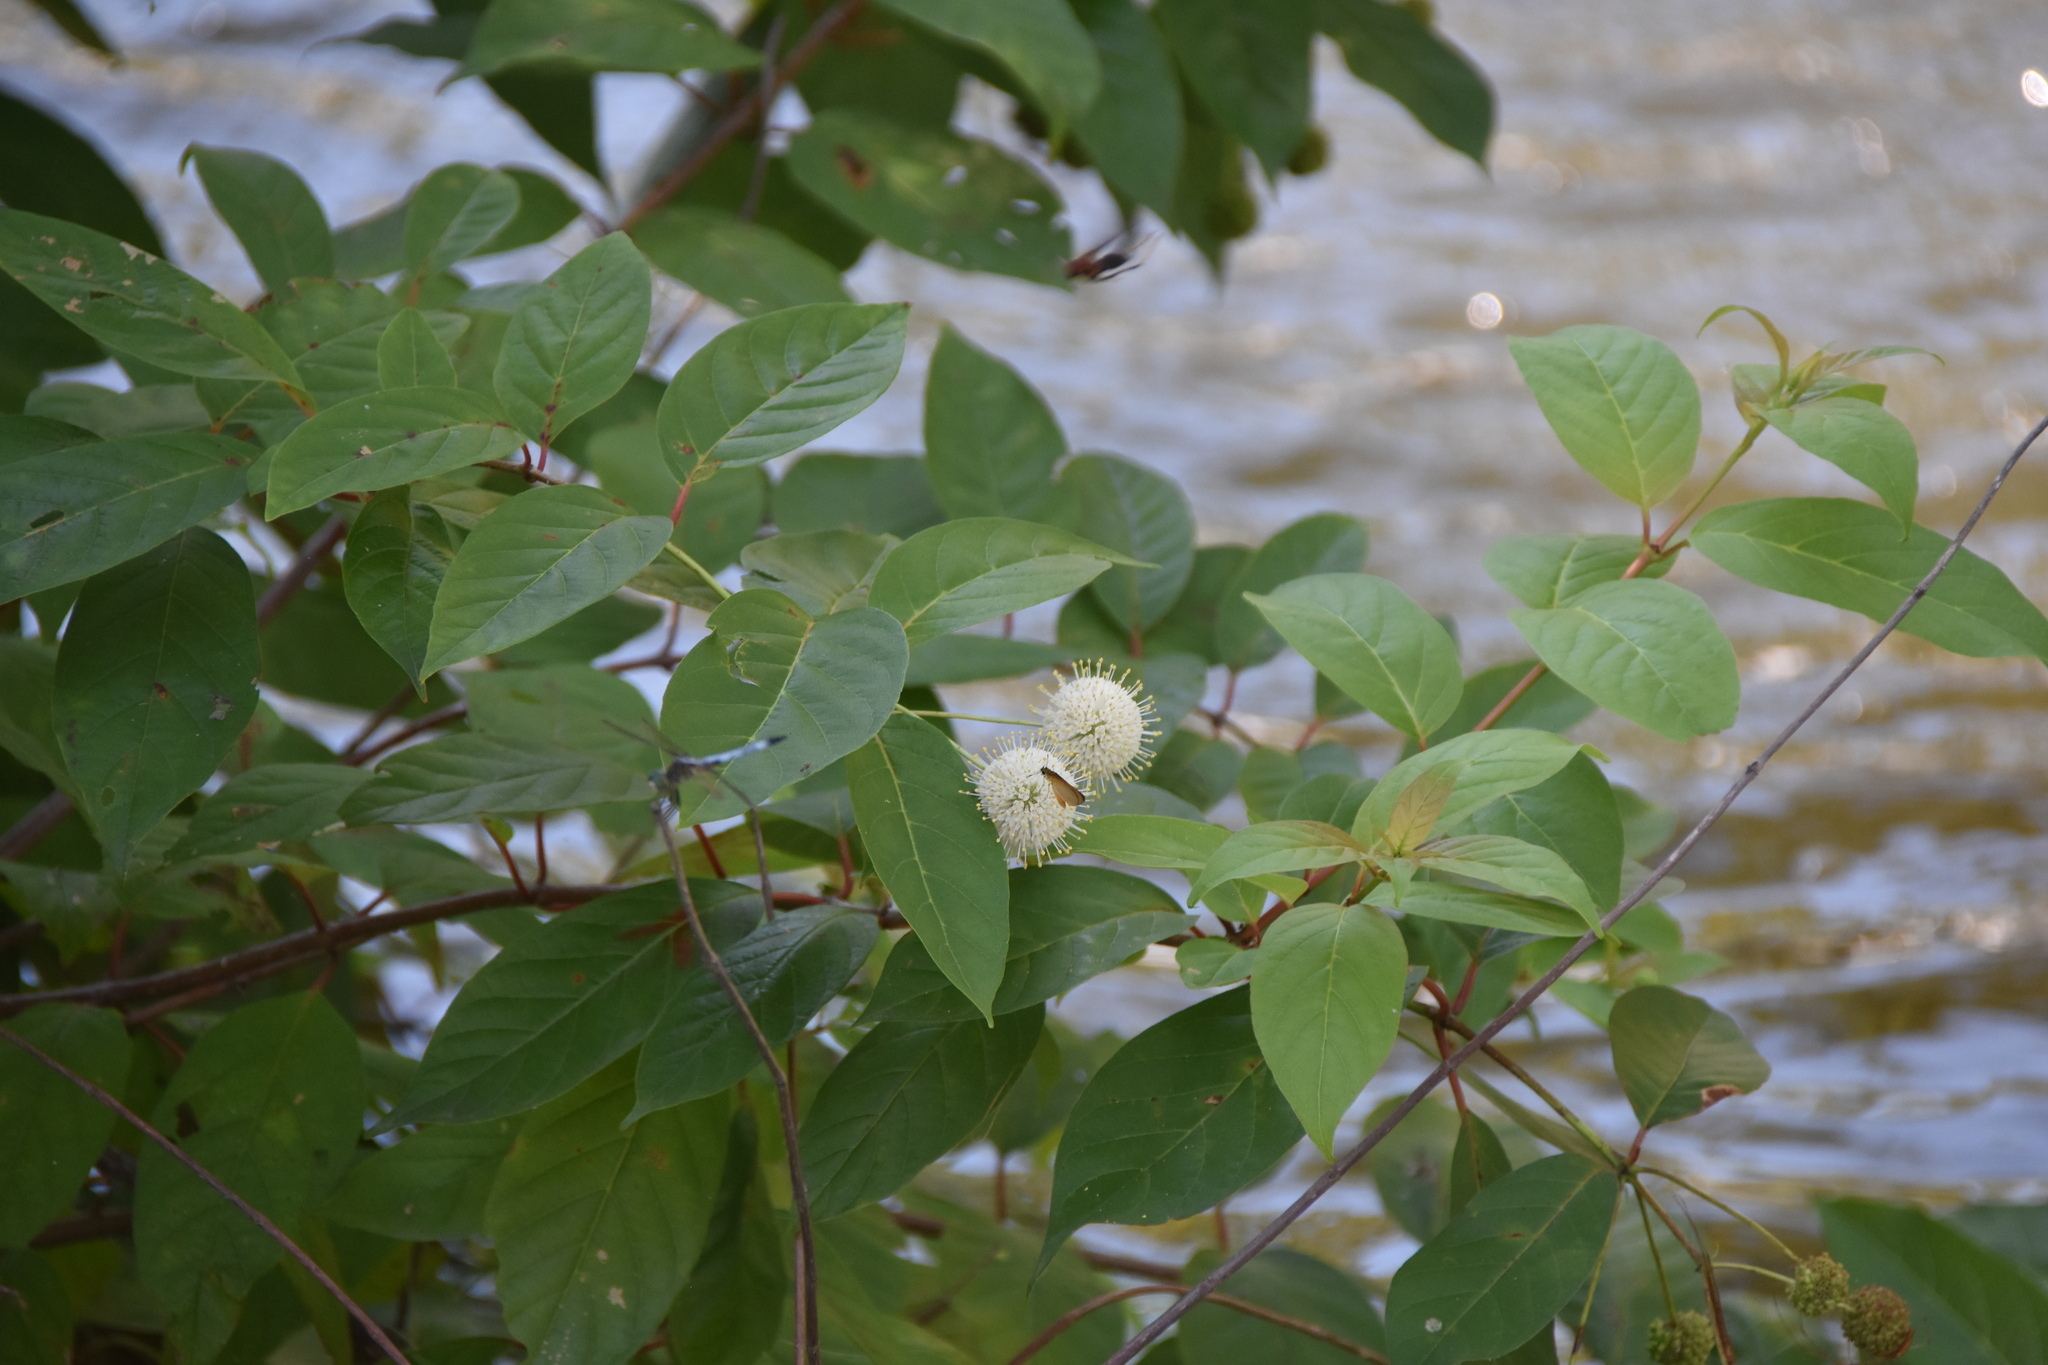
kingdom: Animalia
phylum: Arthropoda
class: Insecta
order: Odonata
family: Libellulidae
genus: Pachydiplax
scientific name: Pachydiplax longipennis
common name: Blue dasher
